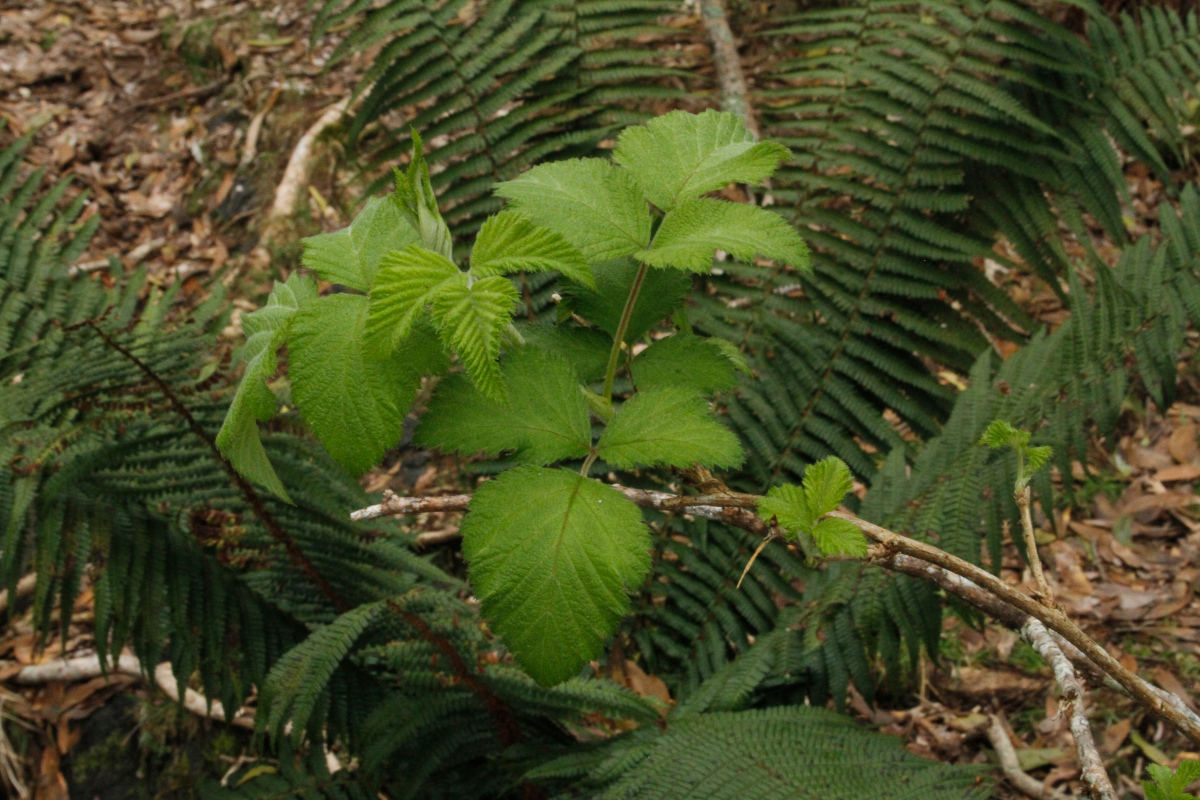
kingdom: Plantae
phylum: Tracheophyta
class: Magnoliopsida
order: Rosales
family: Rosaceae
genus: Rubus
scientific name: Rubus hawaiensis
